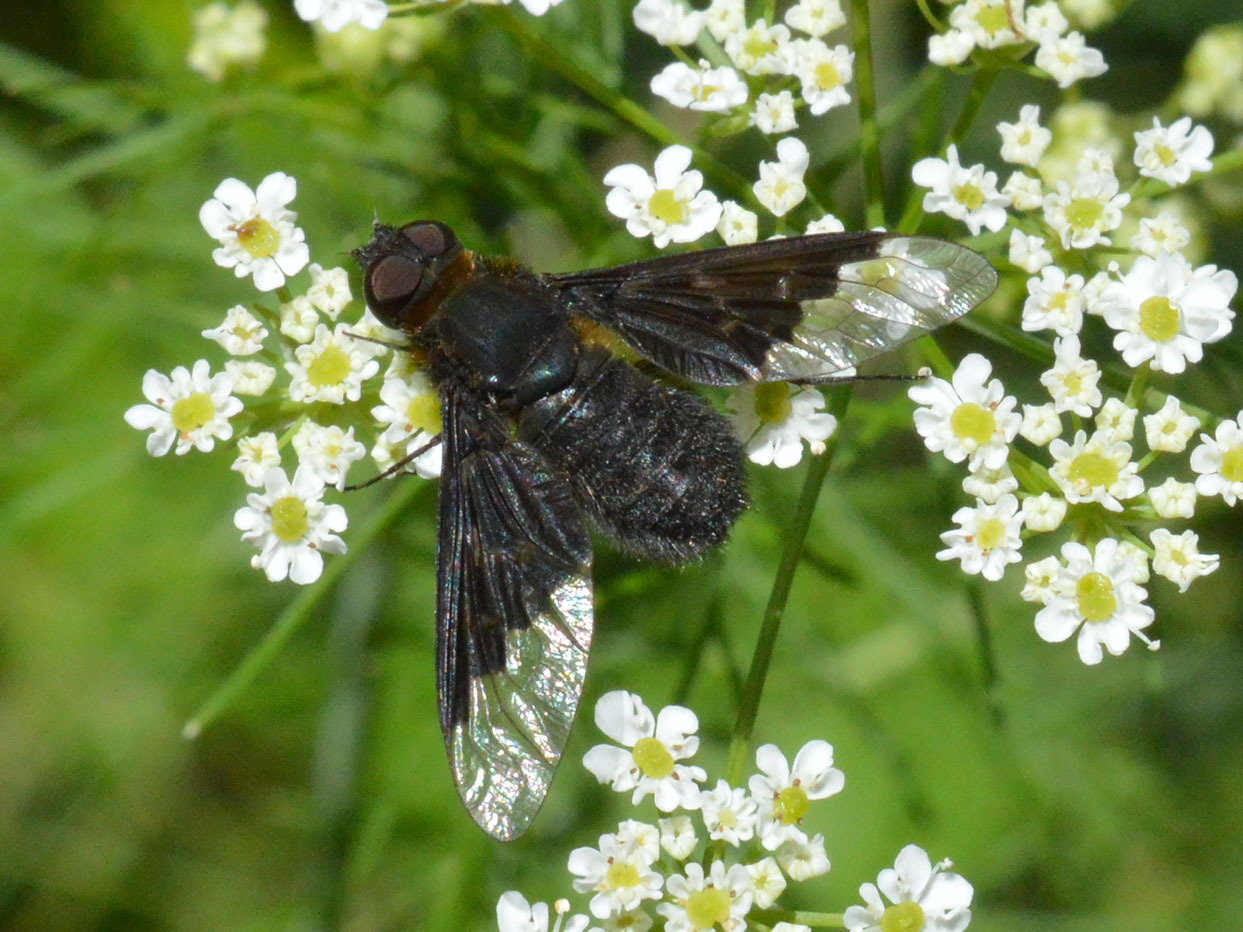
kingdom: Animalia
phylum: Arthropoda
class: Insecta
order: Diptera
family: Bombyliidae
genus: Hemipenthes
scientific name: Hemipenthes morio
